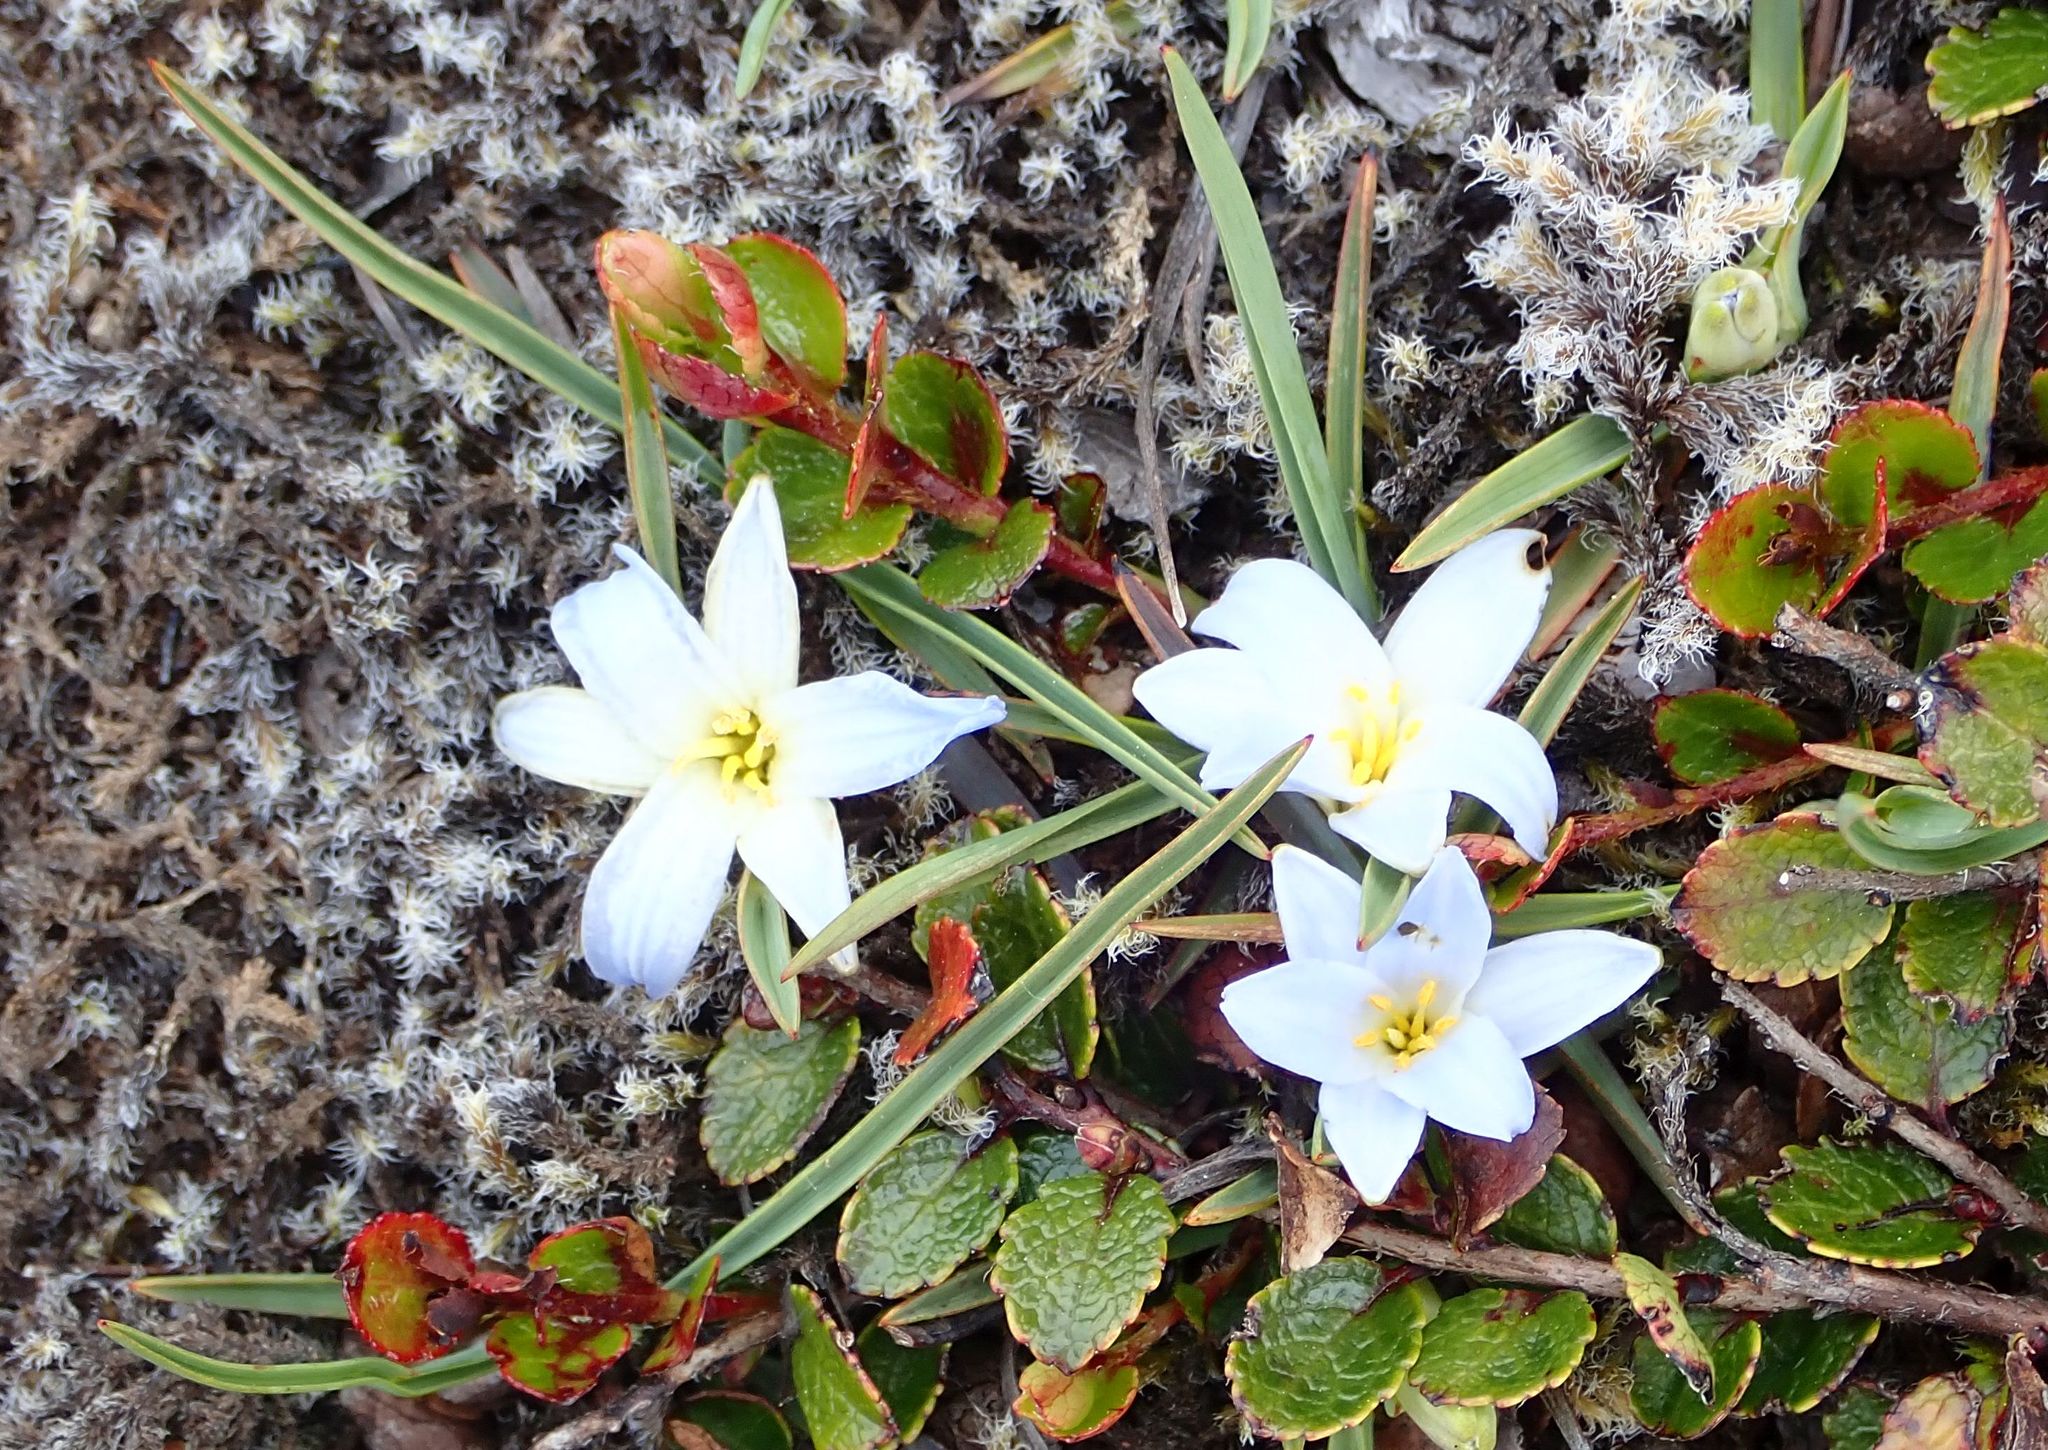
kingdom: Plantae
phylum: Tracheophyta
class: Liliopsida
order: Asparagales
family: Asphodelaceae
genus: Herpolirion
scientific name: Herpolirion novae-zelandiae
